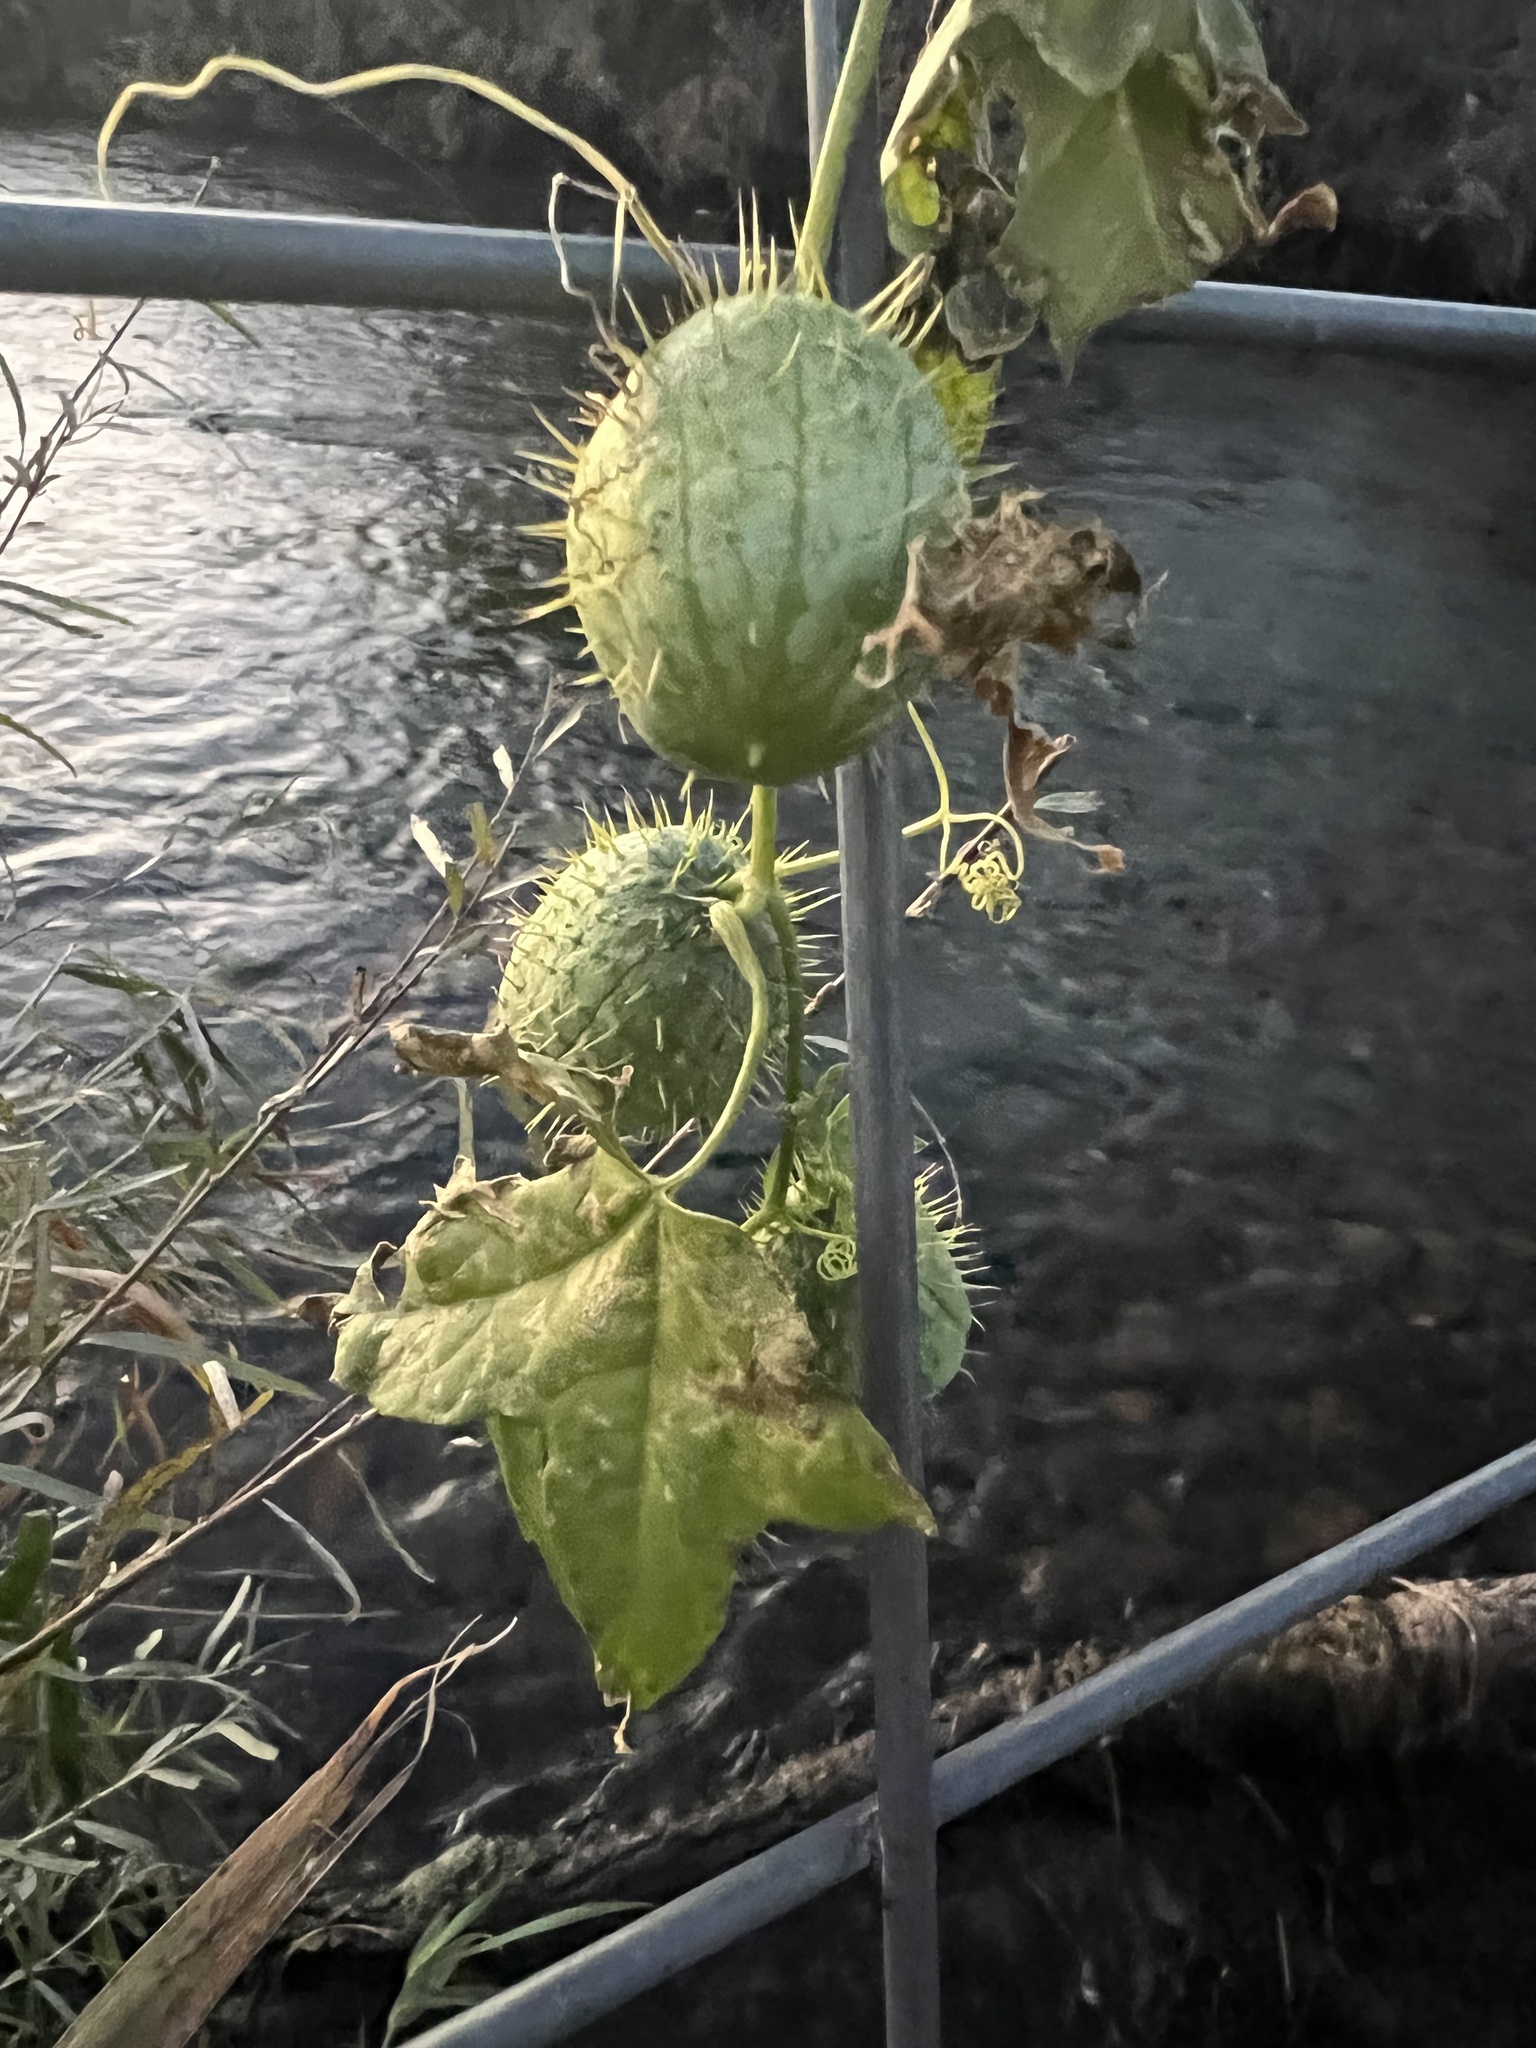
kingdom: Plantae
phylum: Tracheophyta
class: Magnoliopsida
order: Cucurbitales
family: Cucurbitaceae
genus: Echinocystis
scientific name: Echinocystis lobata
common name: Wild cucumber
